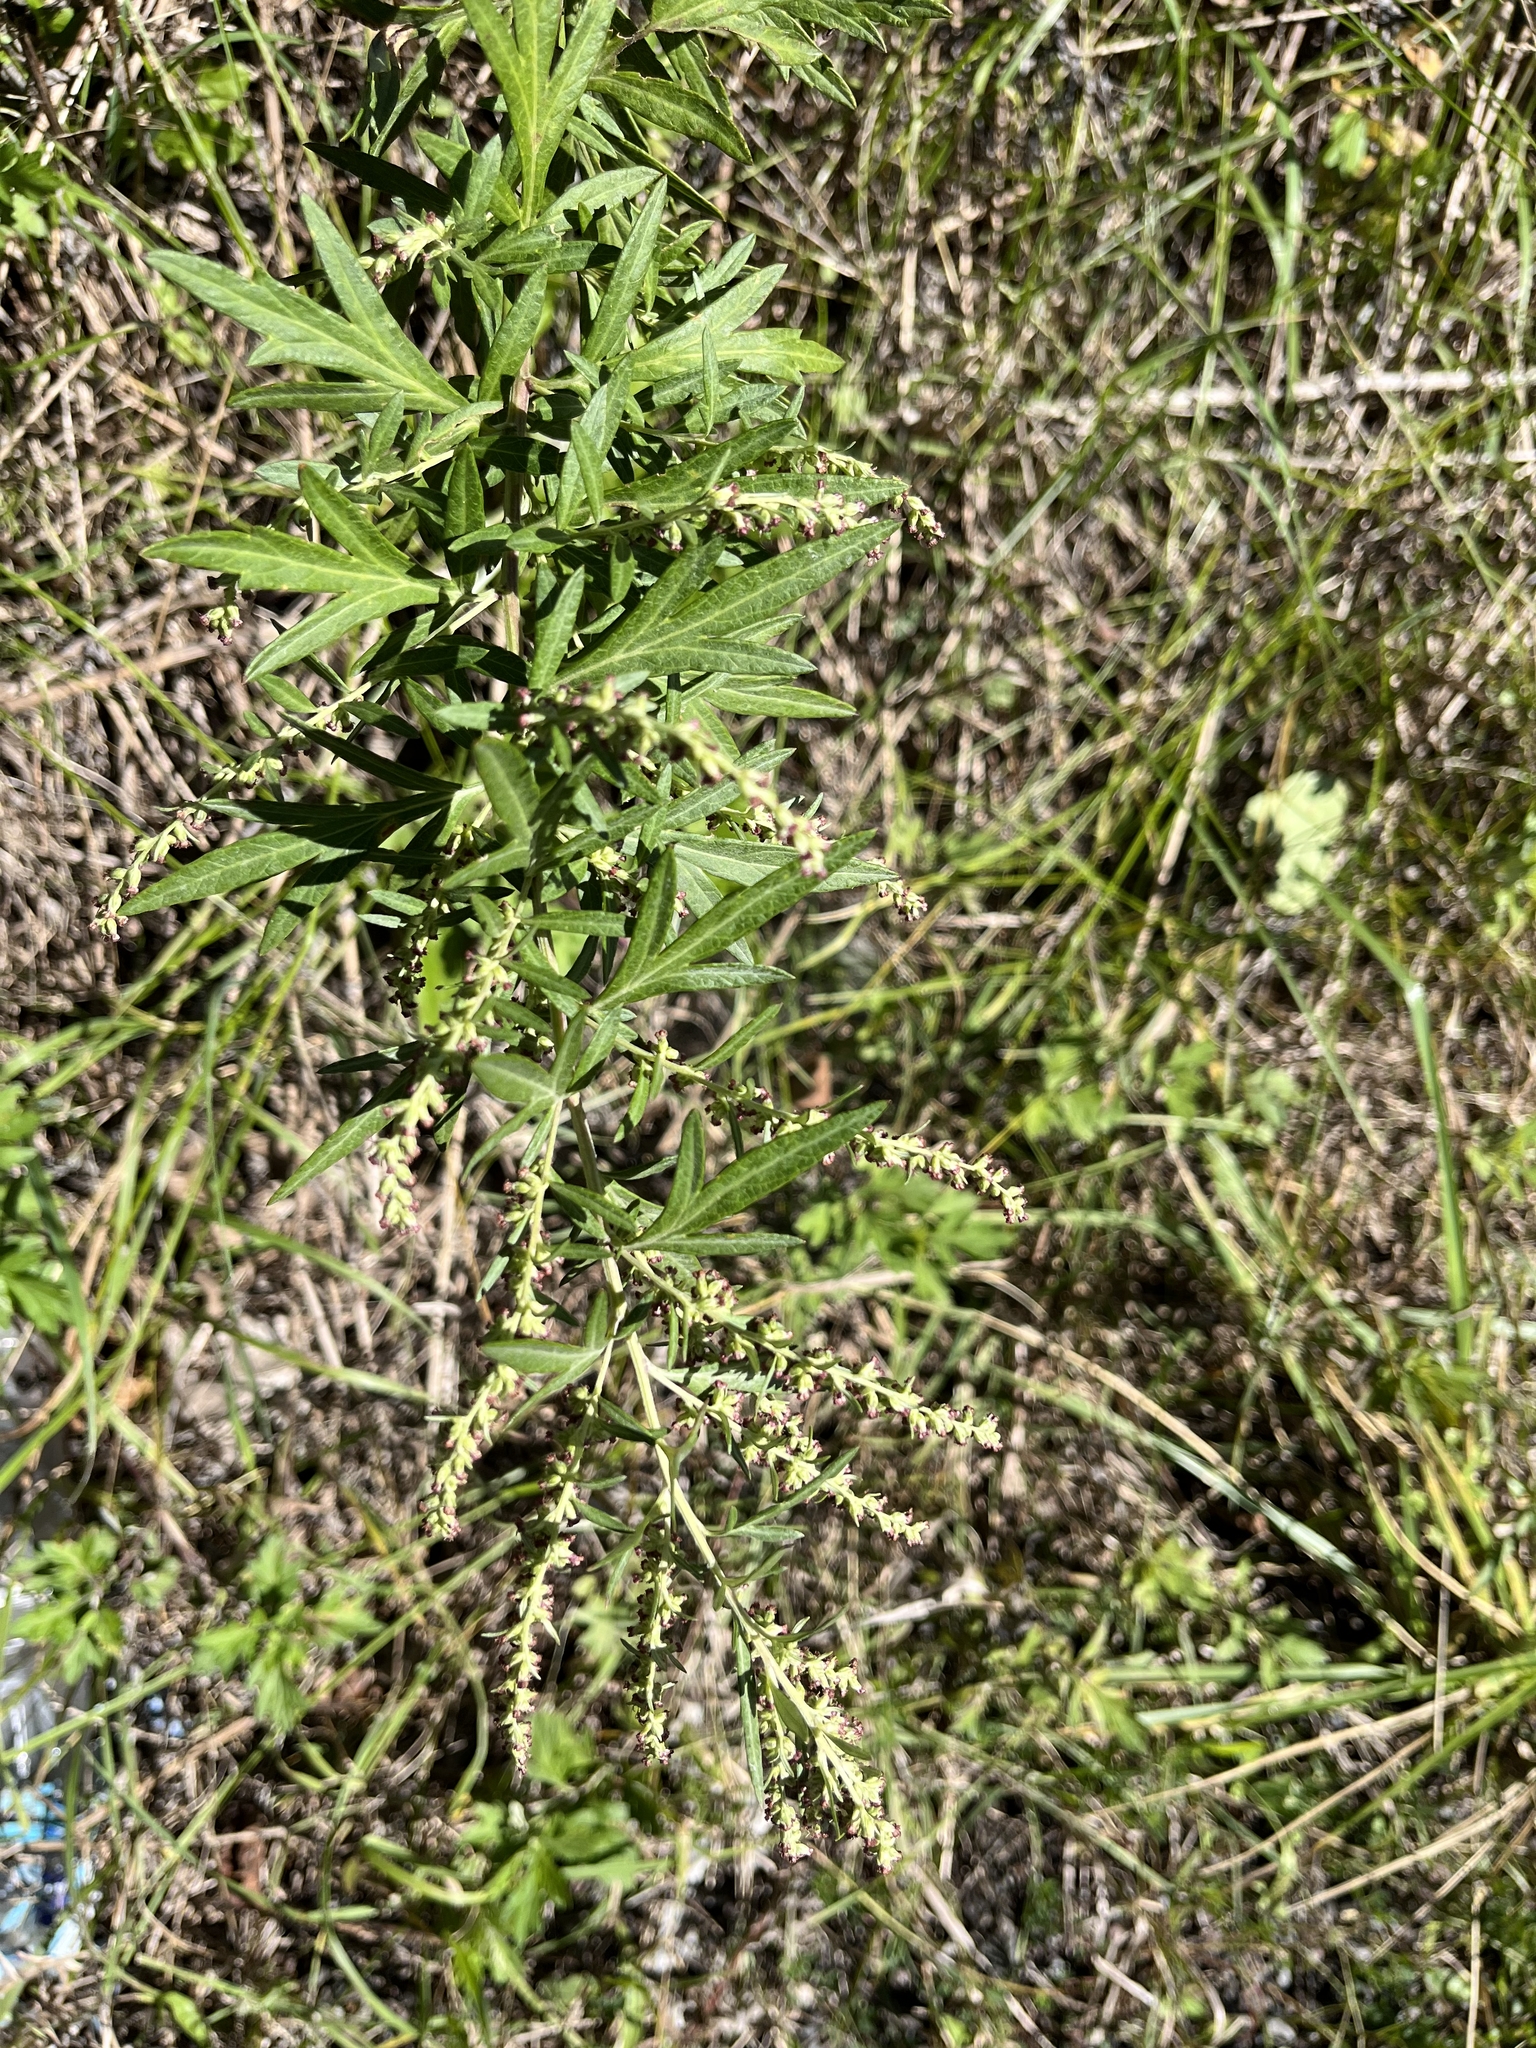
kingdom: Plantae
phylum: Tracheophyta
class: Magnoliopsida
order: Asterales
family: Asteraceae
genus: Artemisia
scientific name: Artemisia vulgaris
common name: Mugwort
